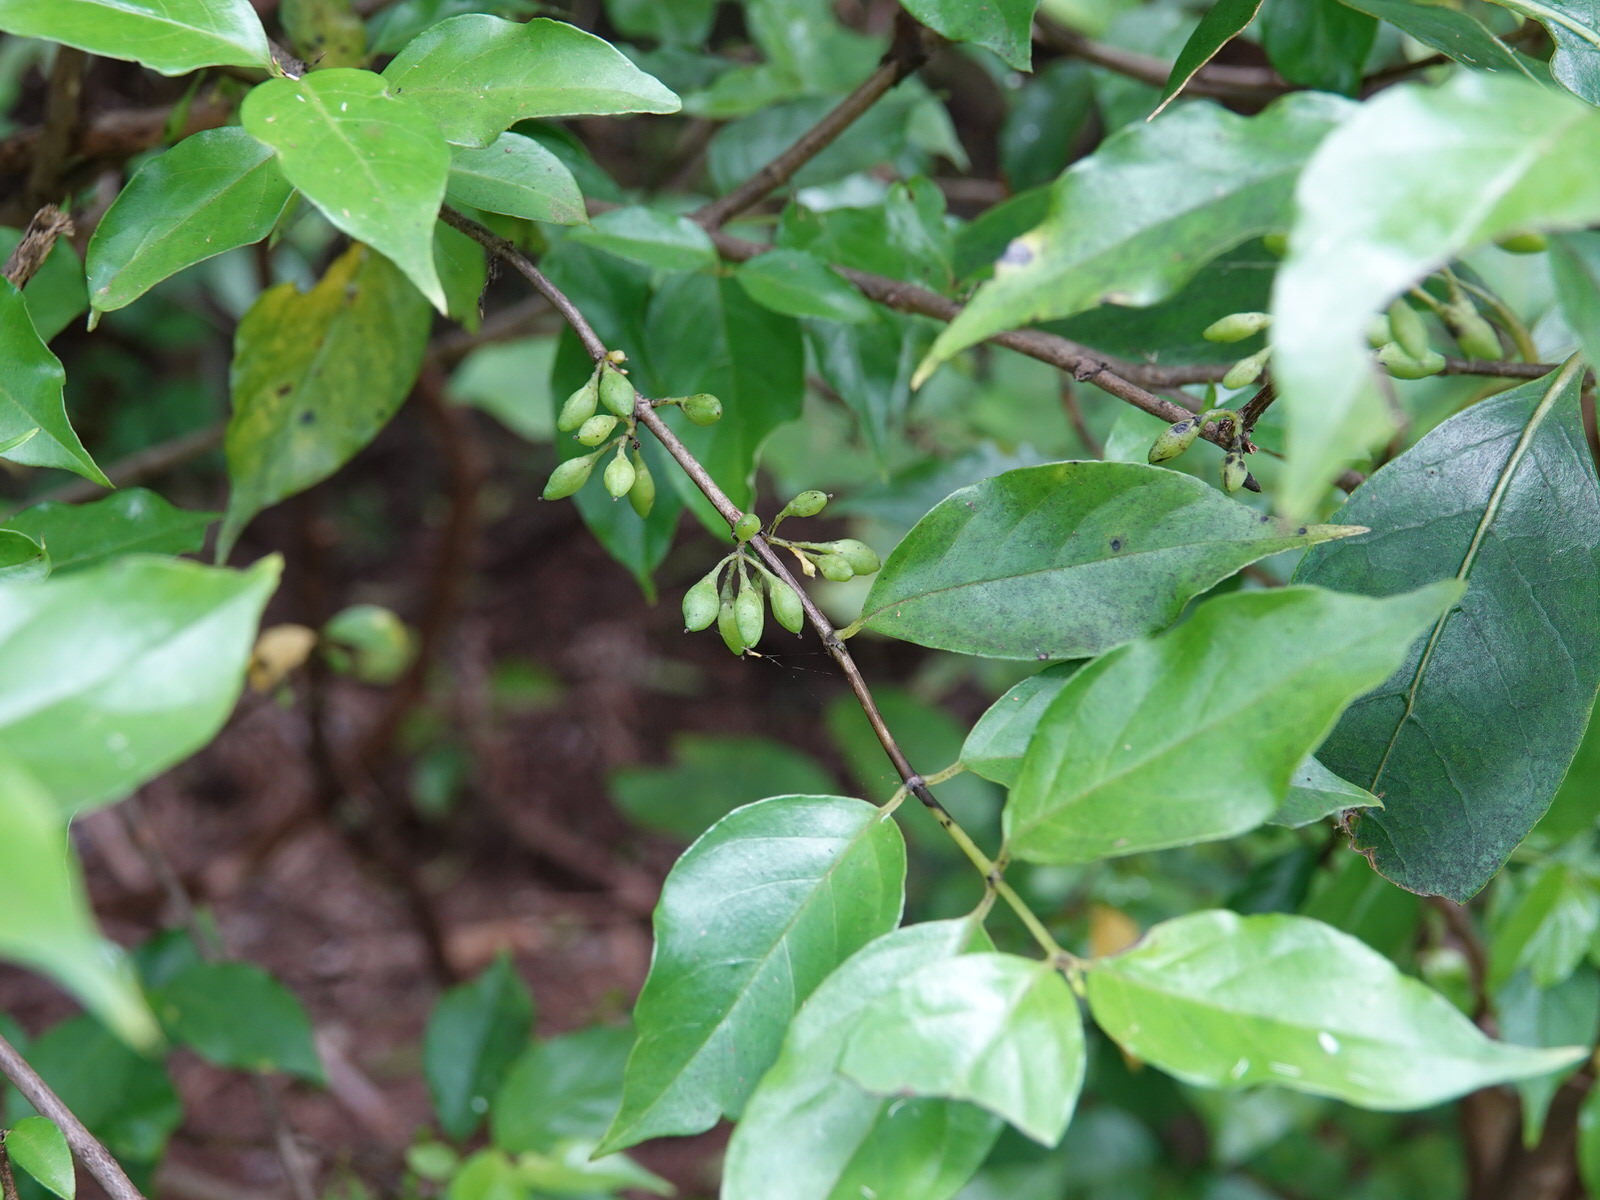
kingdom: Plantae
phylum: Tracheophyta
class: Magnoliopsida
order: Gentianales
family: Loganiaceae
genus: Geniostoma
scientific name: Geniostoma ligustrifolium
